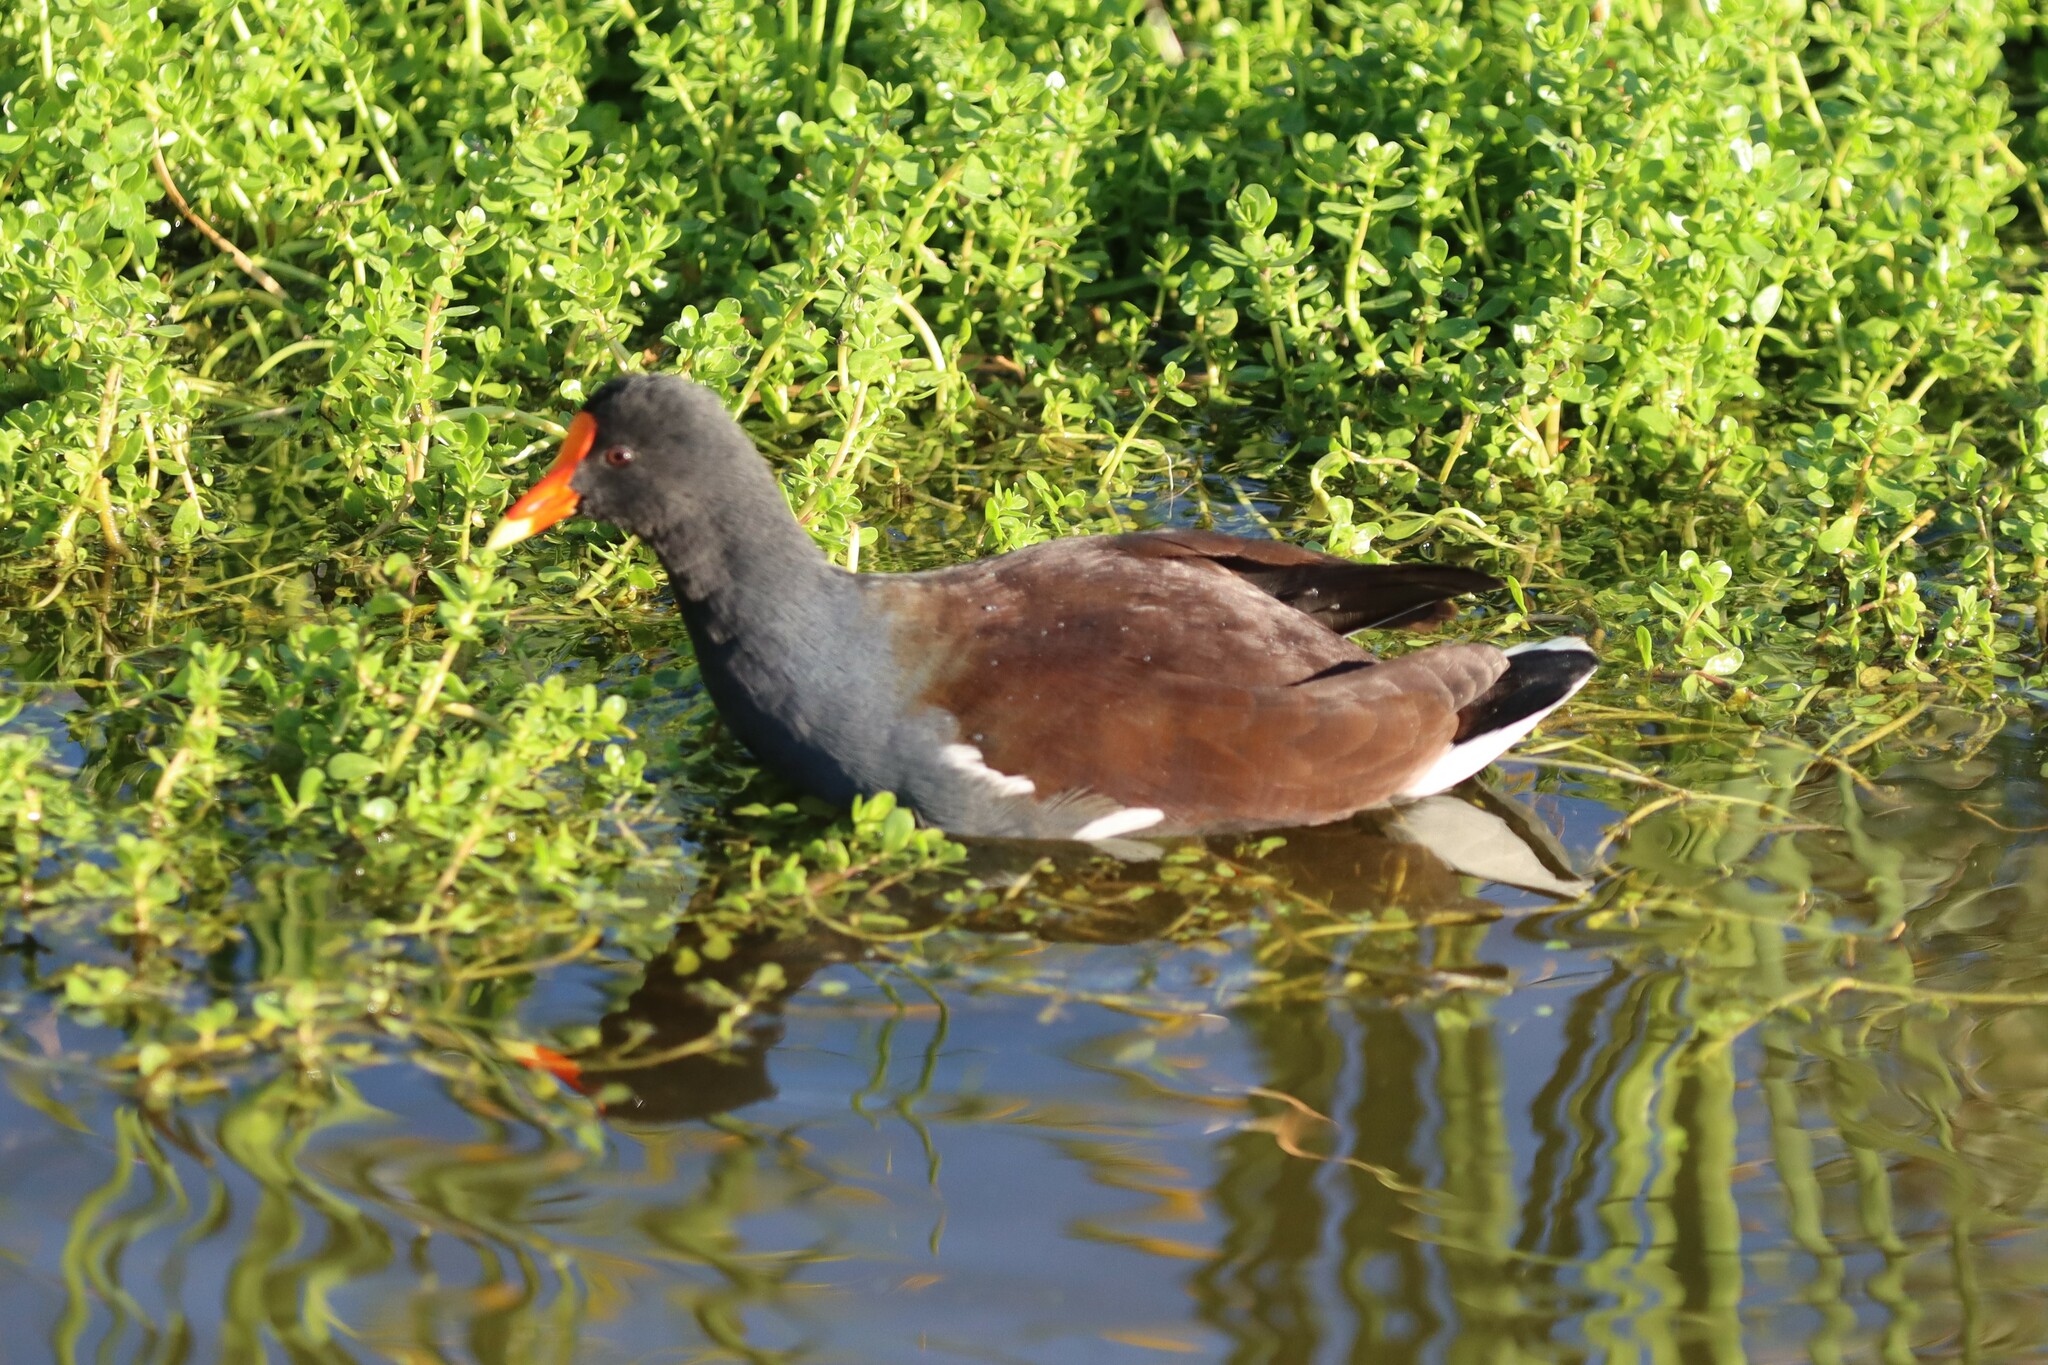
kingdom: Animalia
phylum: Chordata
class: Aves
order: Gruiformes
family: Rallidae
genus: Gallinula
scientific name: Gallinula chloropus
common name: Common moorhen
